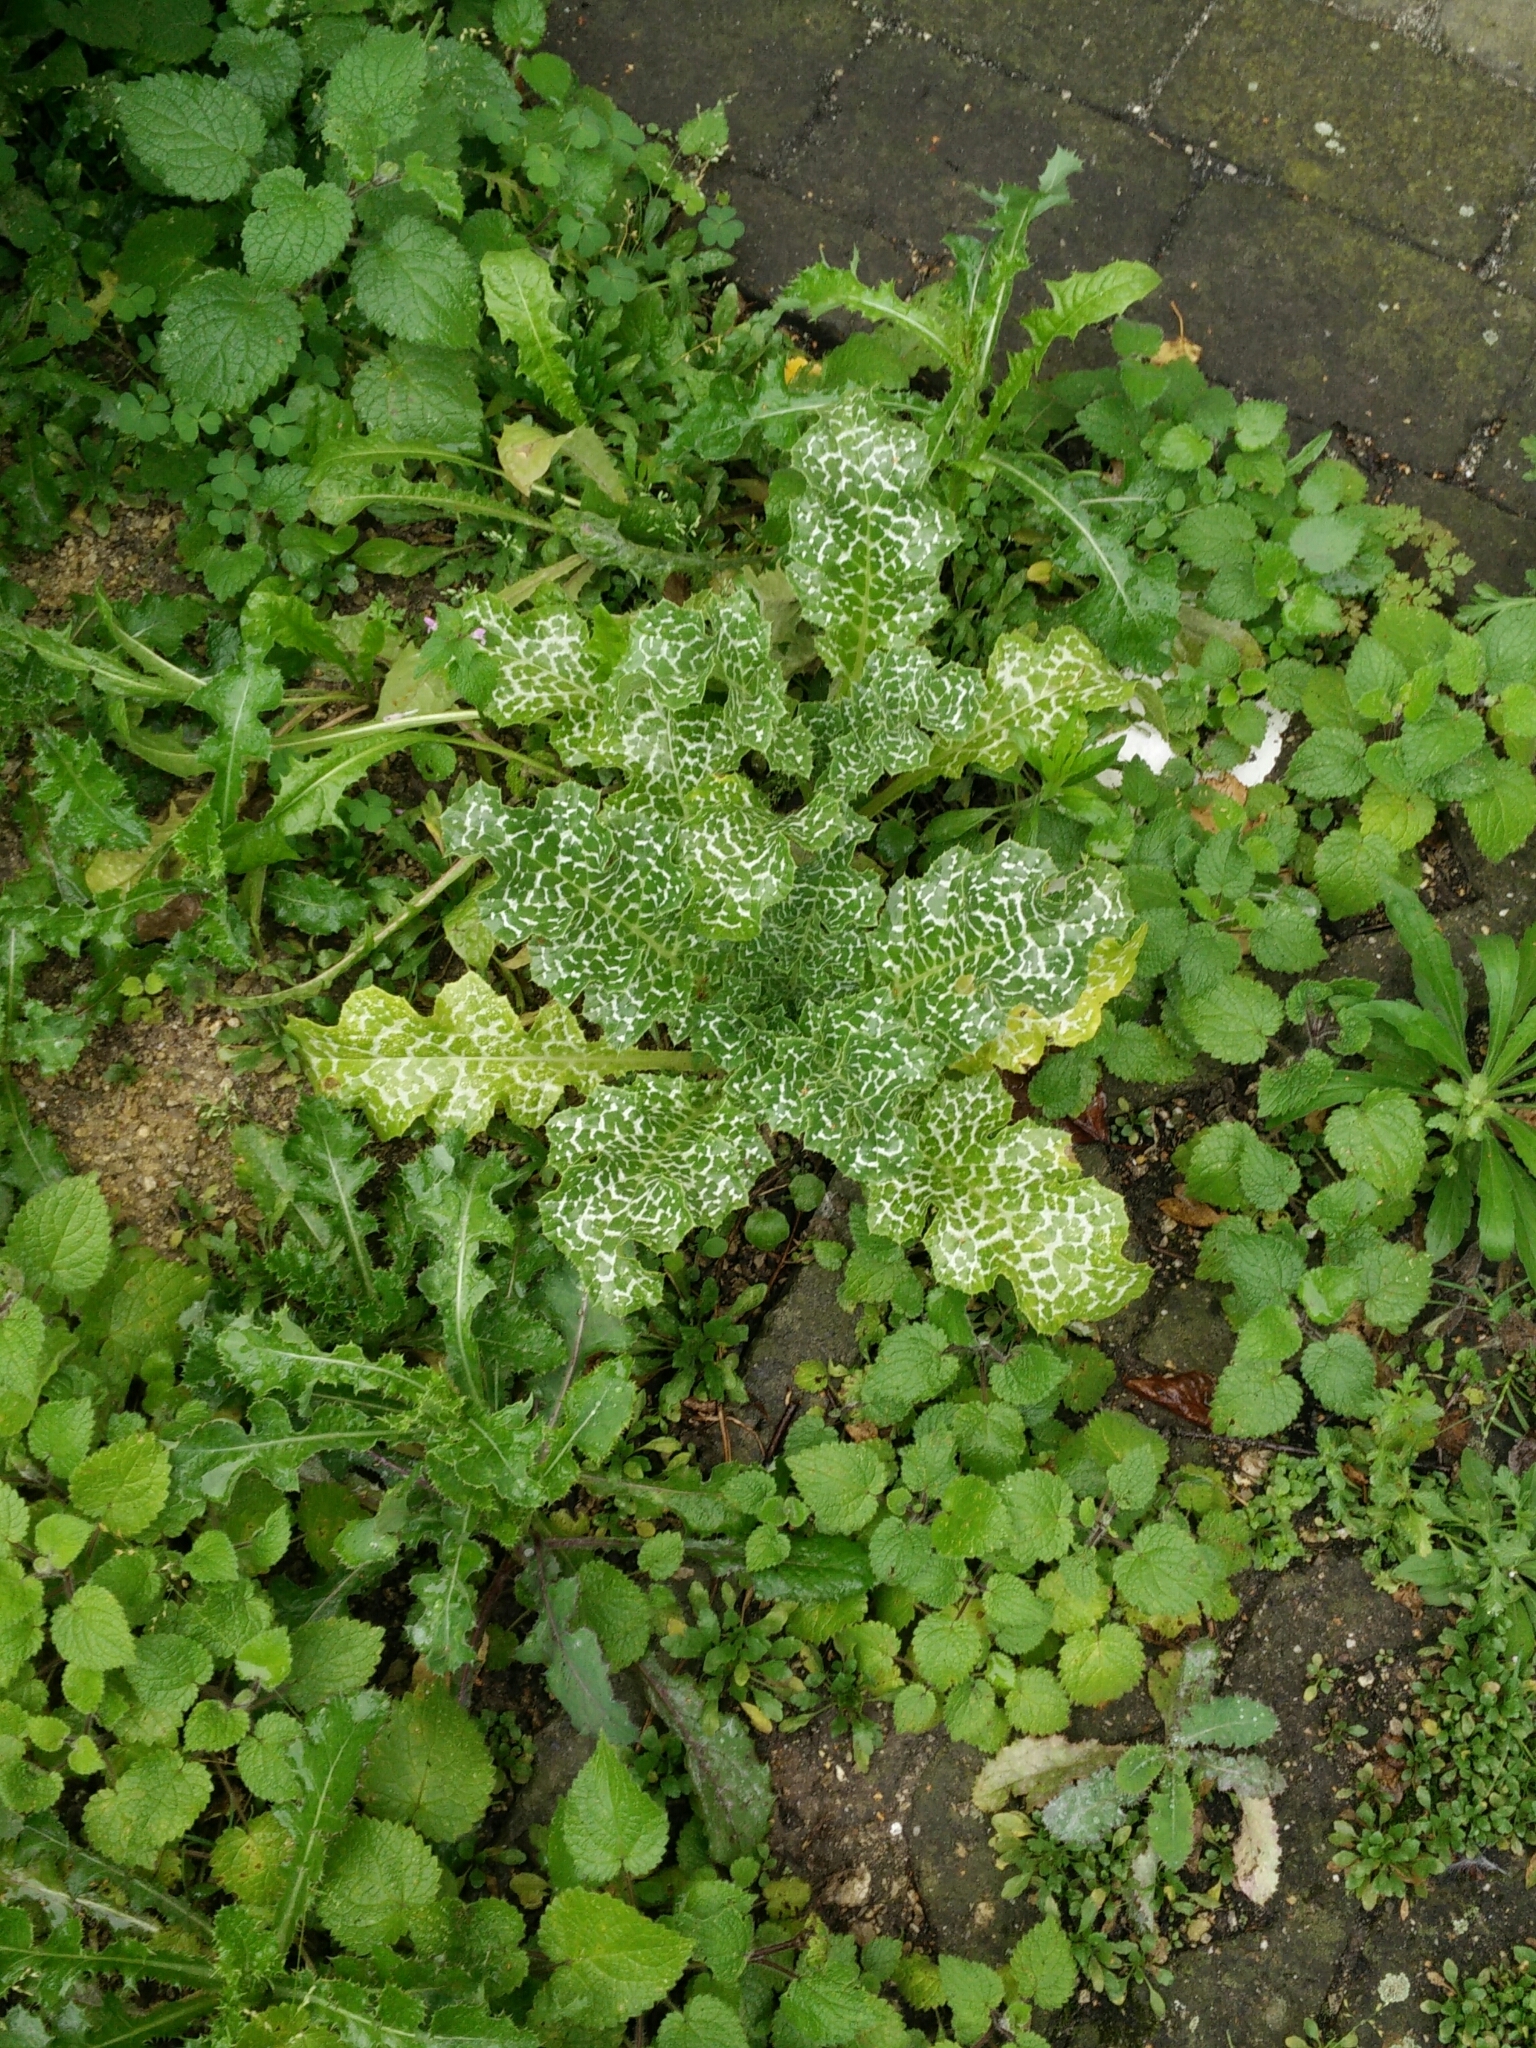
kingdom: Plantae
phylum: Tracheophyta
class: Magnoliopsida
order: Asterales
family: Asteraceae
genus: Silybum
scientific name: Silybum marianum
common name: Milk thistle
